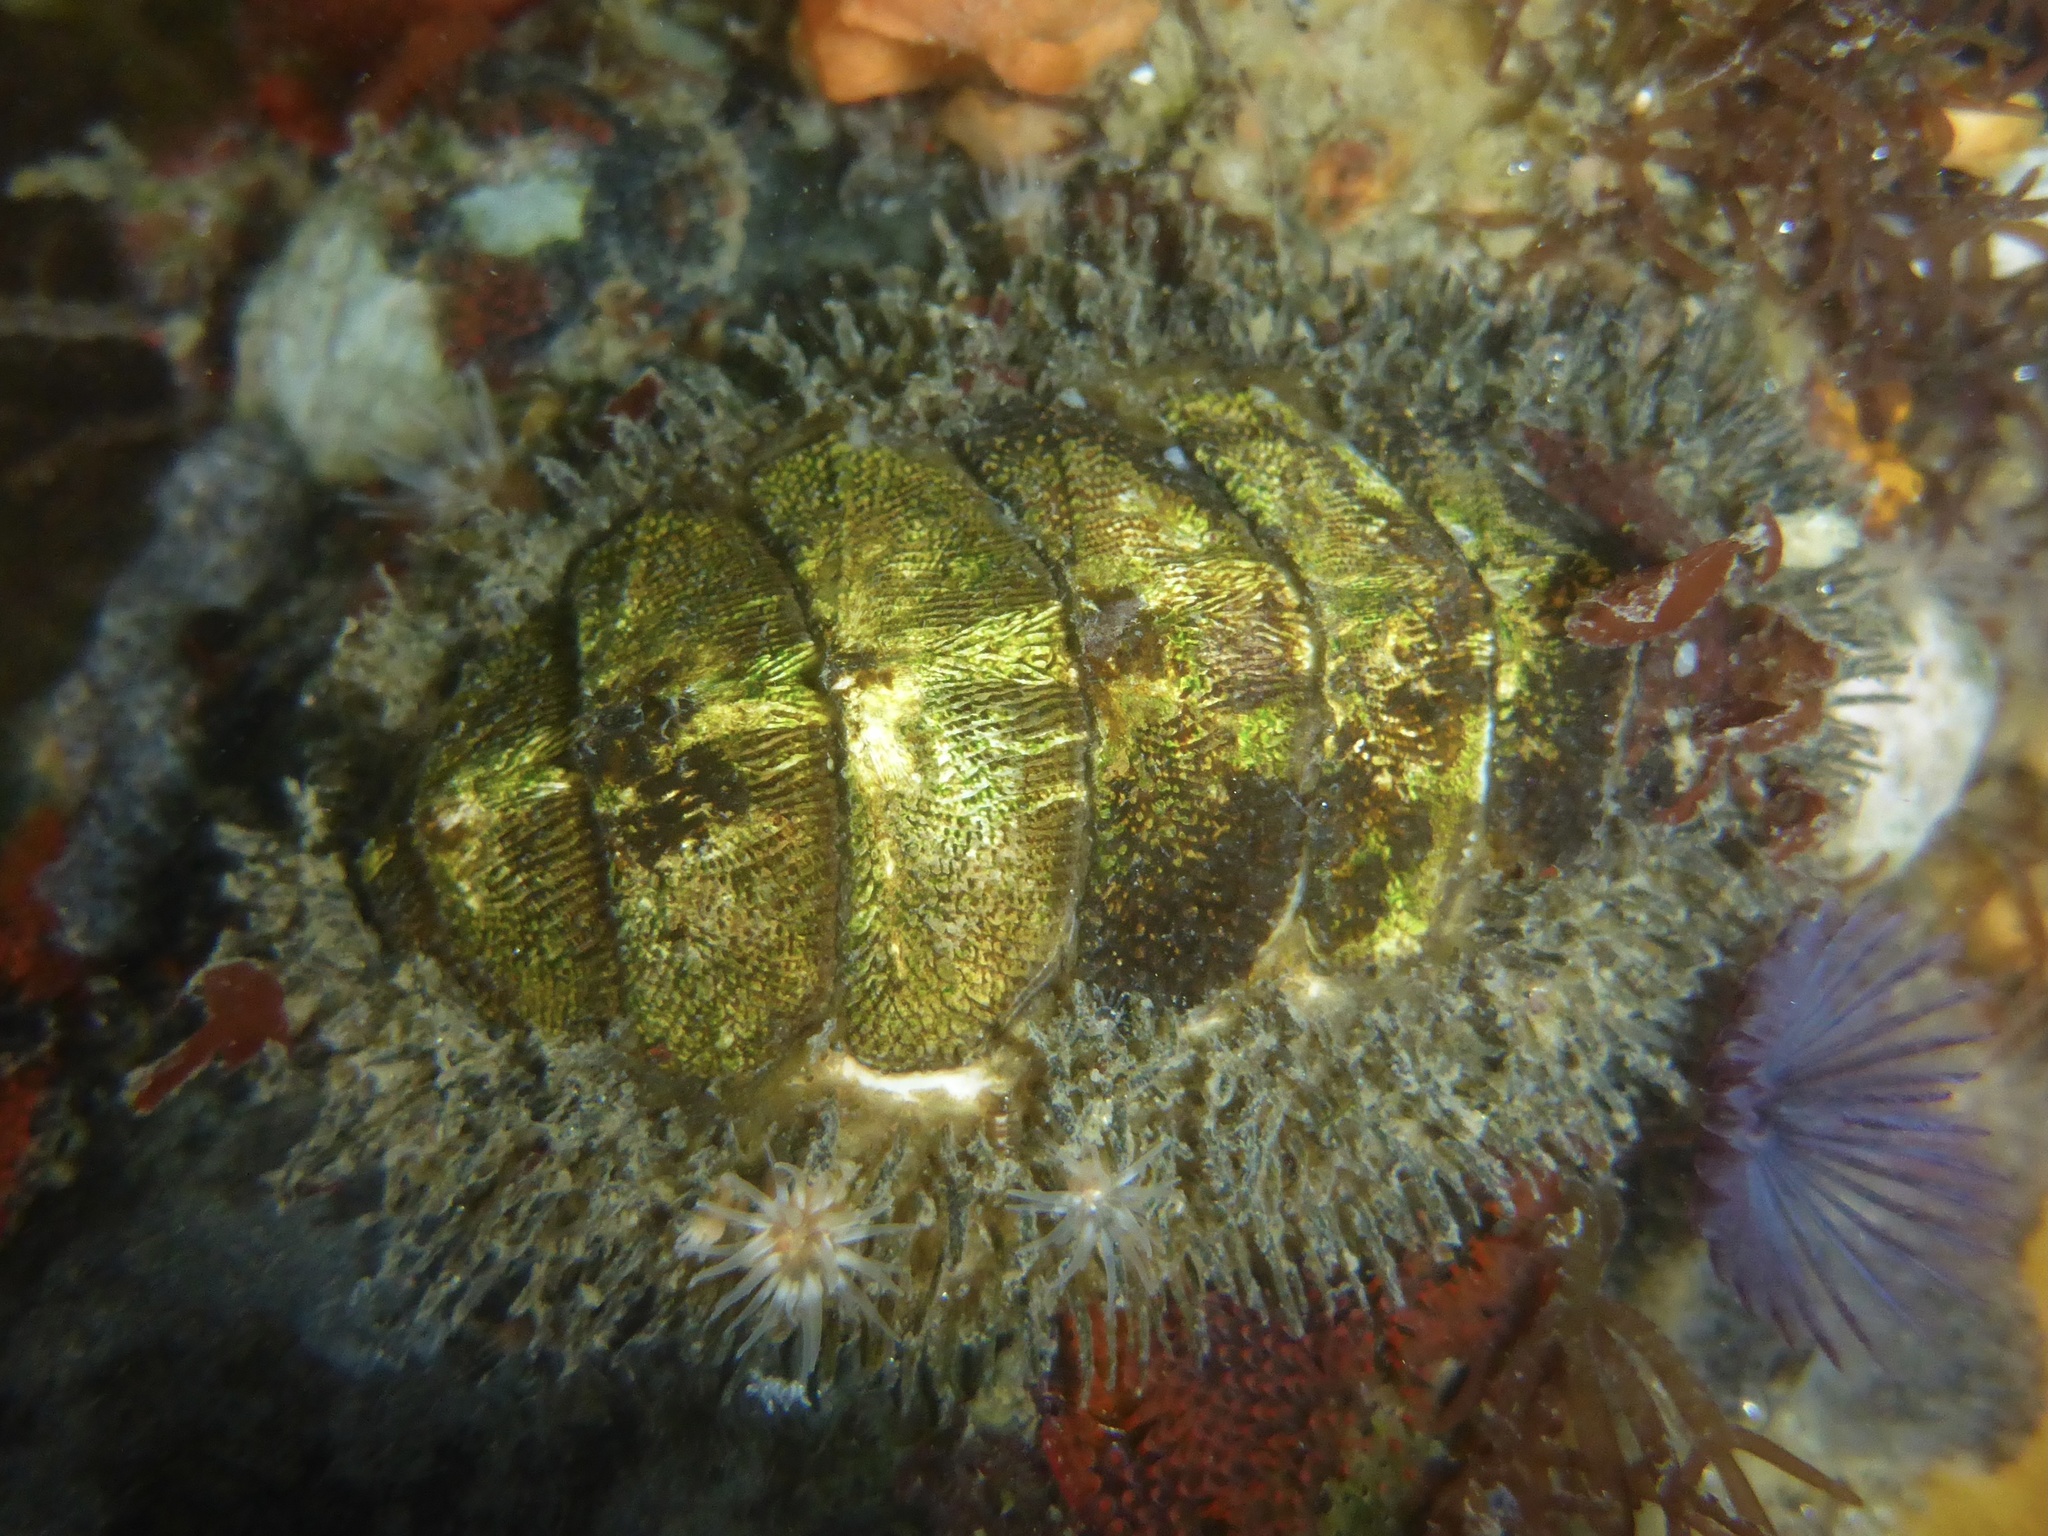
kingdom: Animalia
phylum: Mollusca
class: Polyplacophora
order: Chitonida
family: Mopaliidae
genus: Mopalia
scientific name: Mopalia muscosa
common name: Mossy chiton
